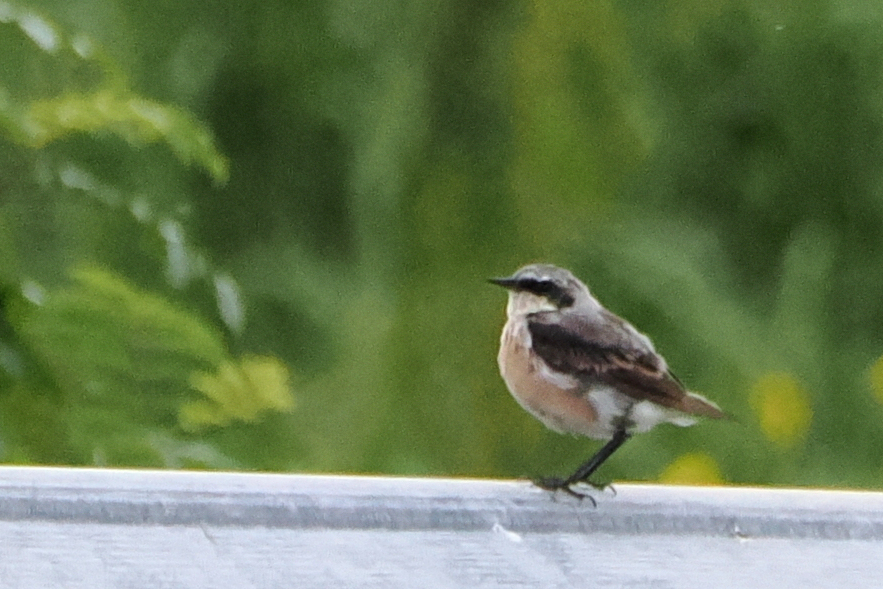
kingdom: Animalia
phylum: Chordata
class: Aves
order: Passeriformes
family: Muscicapidae
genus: Oenanthe
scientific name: Oenanthe oenanthe
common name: Northern wheatear
